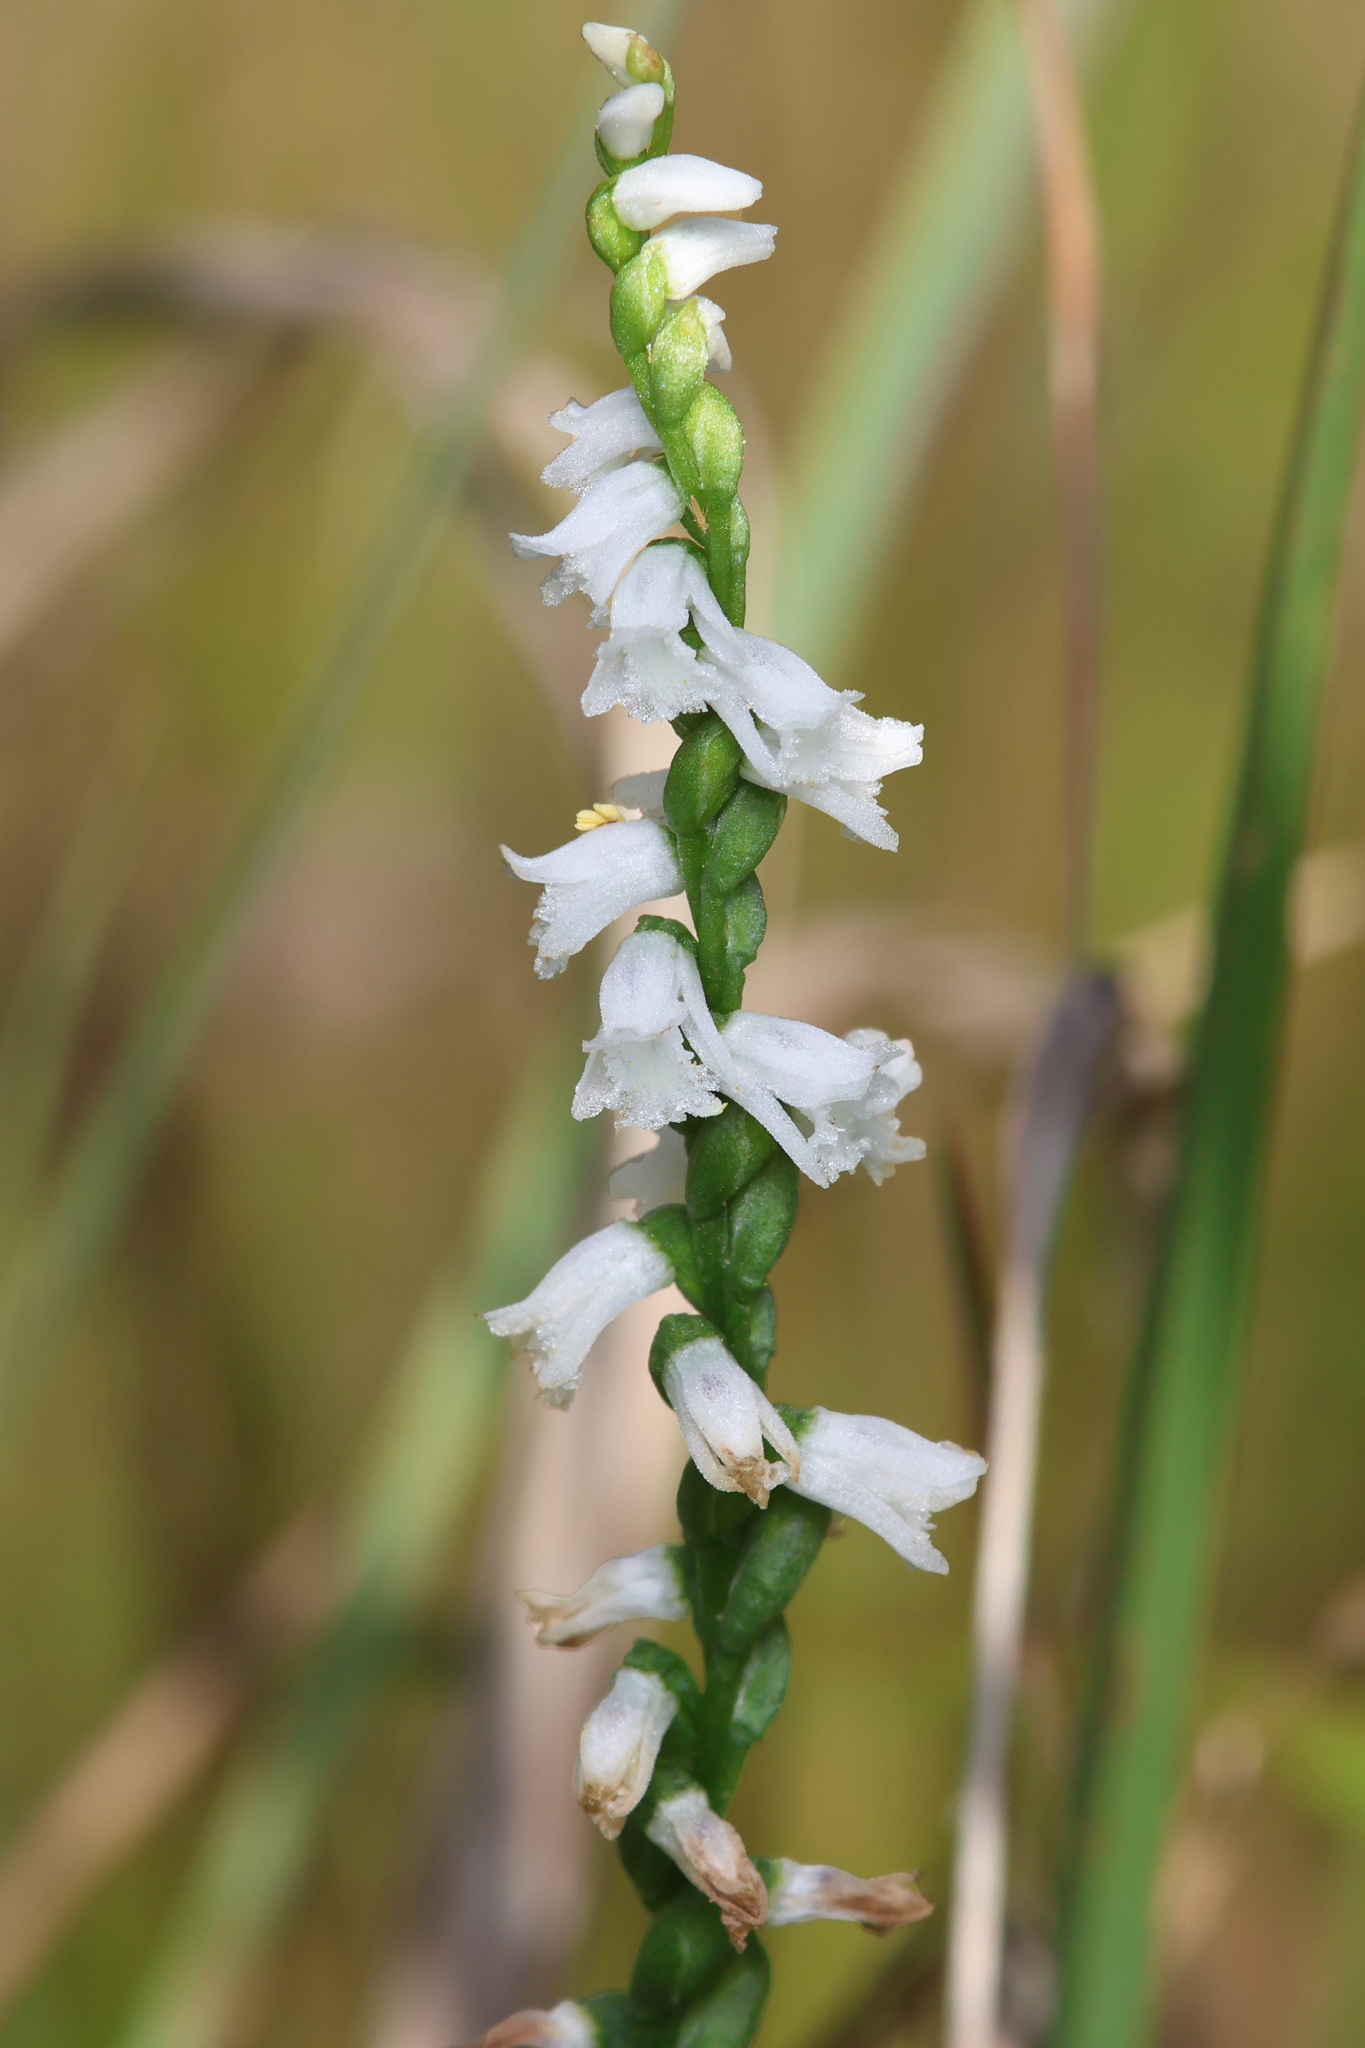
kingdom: Plantae
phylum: Tracheophyta
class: Liliopsida
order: Asparagales
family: Orchidaceae
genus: Spiranthes
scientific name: Spiranthes tuberosa
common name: Little ladies'-tresses
